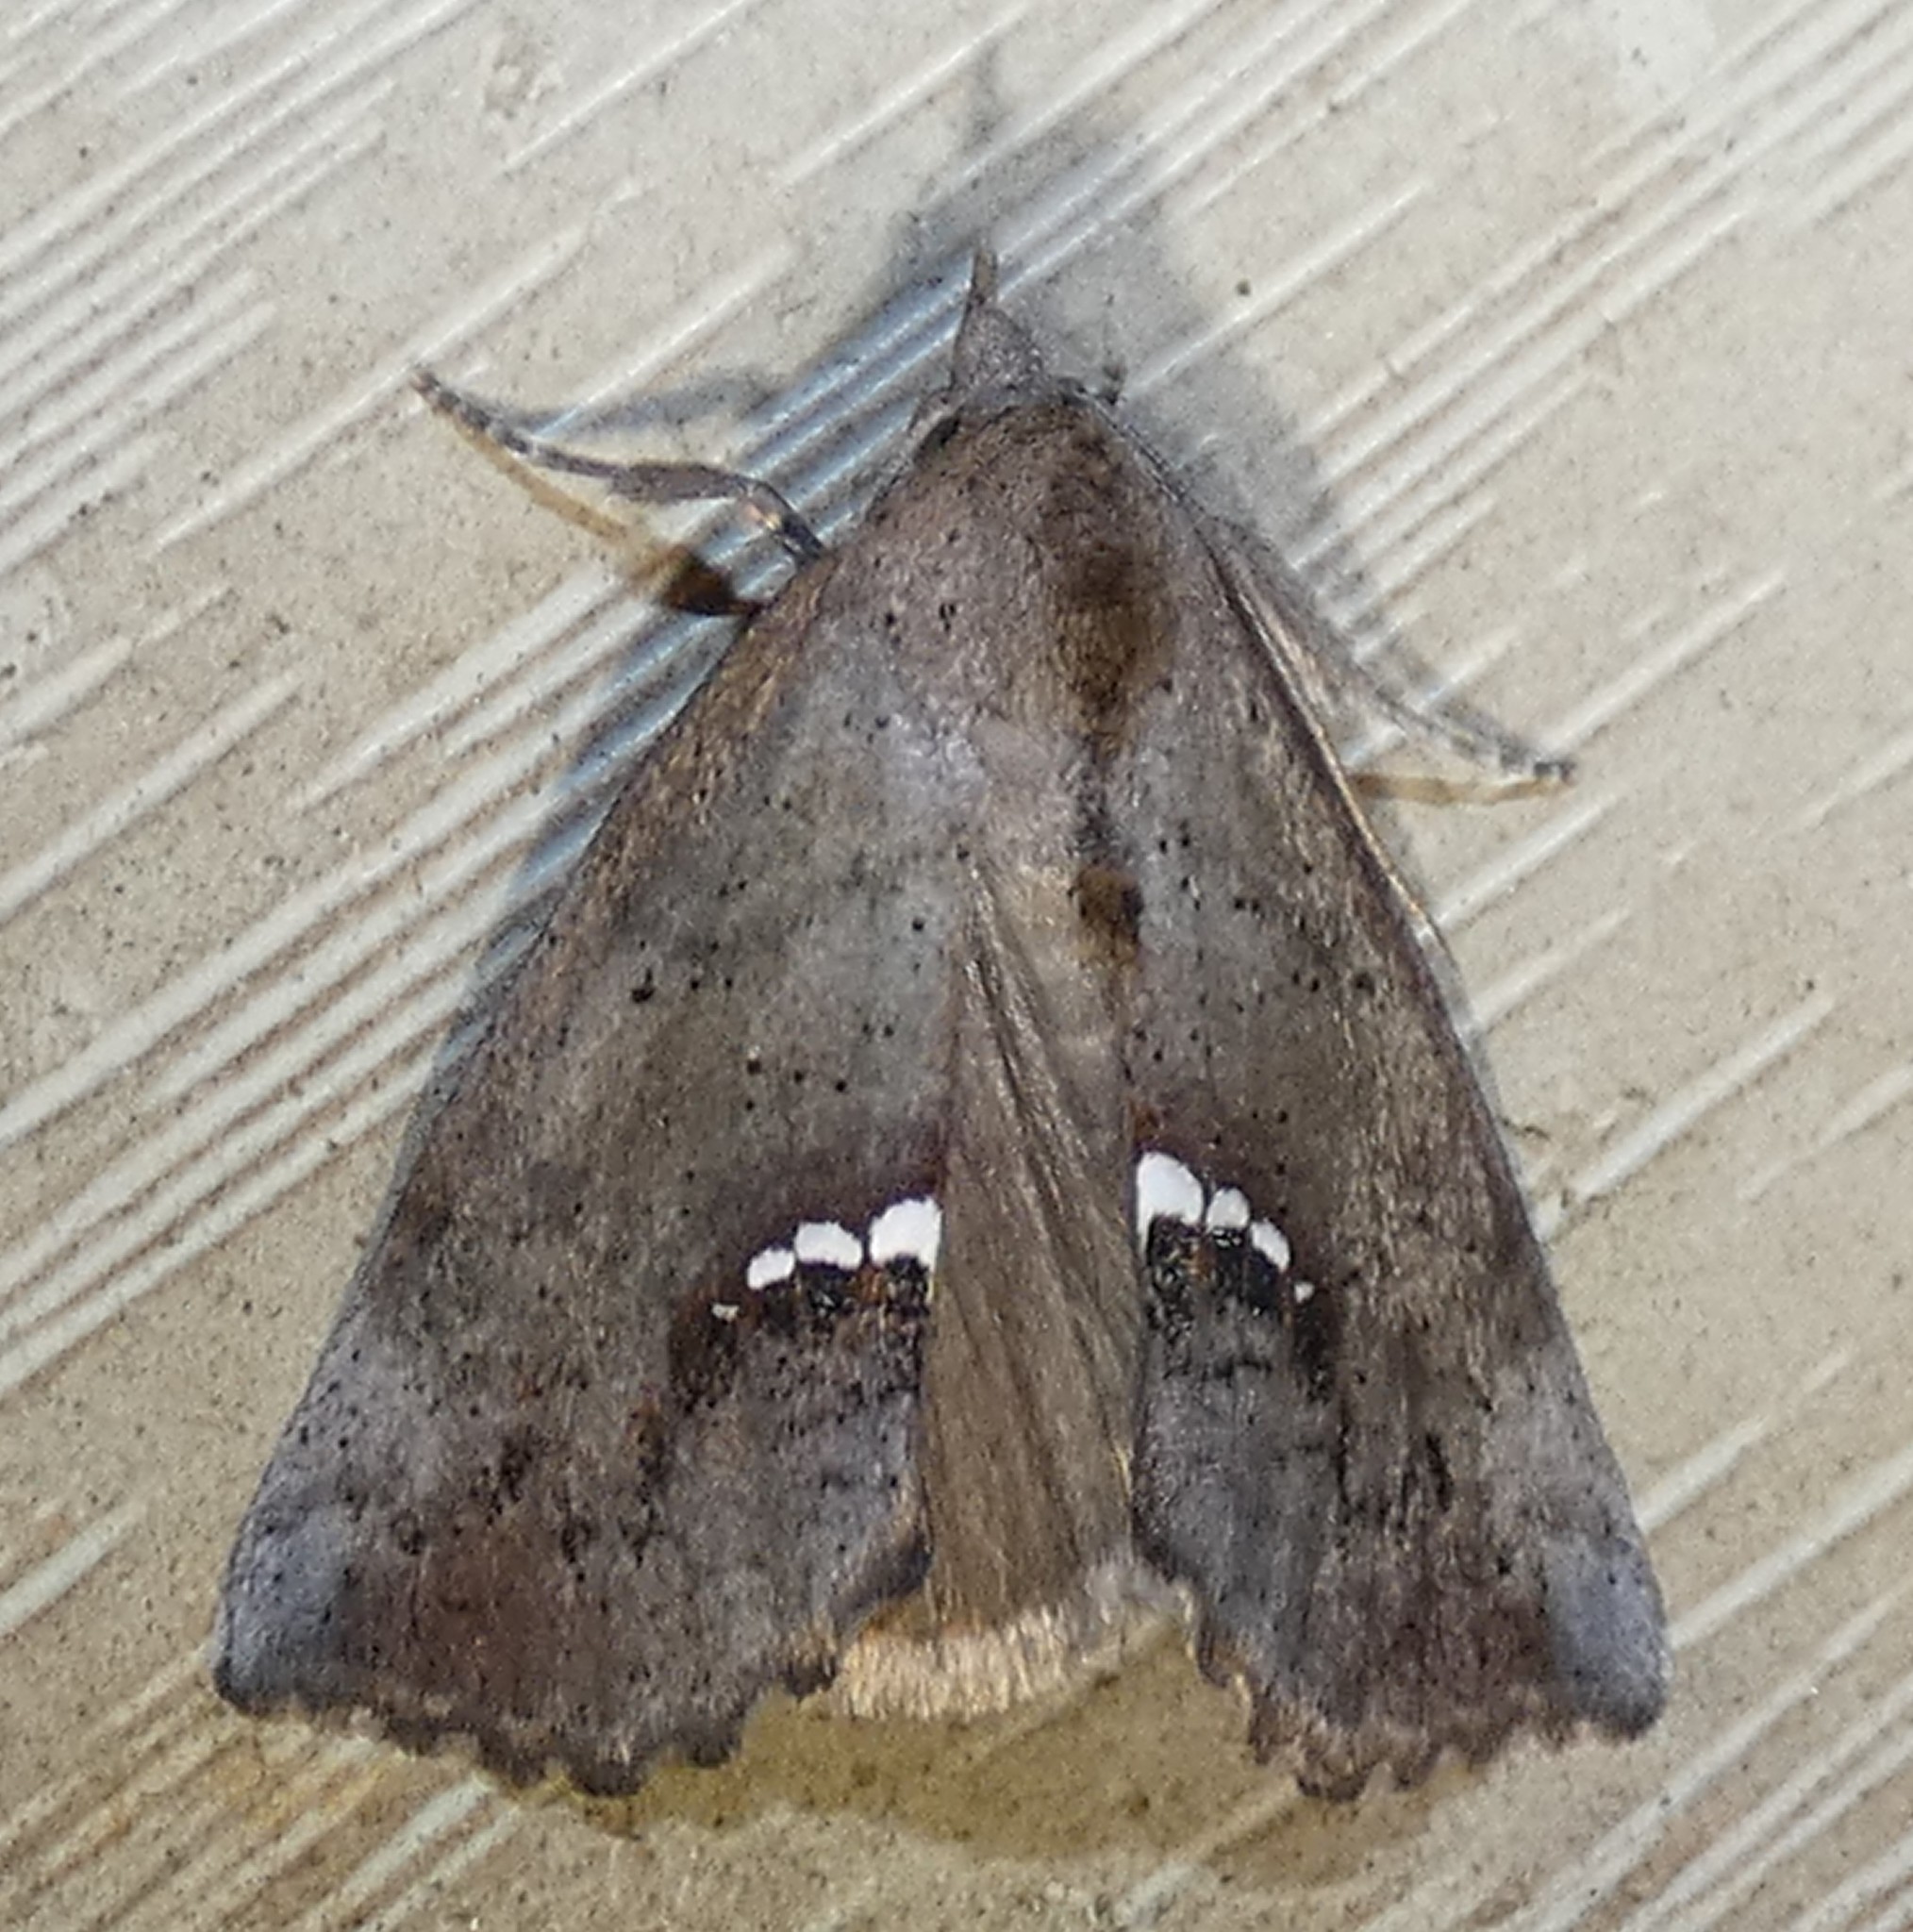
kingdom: Animalia
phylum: Arthropoda
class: Insecta
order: Lepidoptera
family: Erebidae
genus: Hypsoropha
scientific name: Hypsoropha hormos
